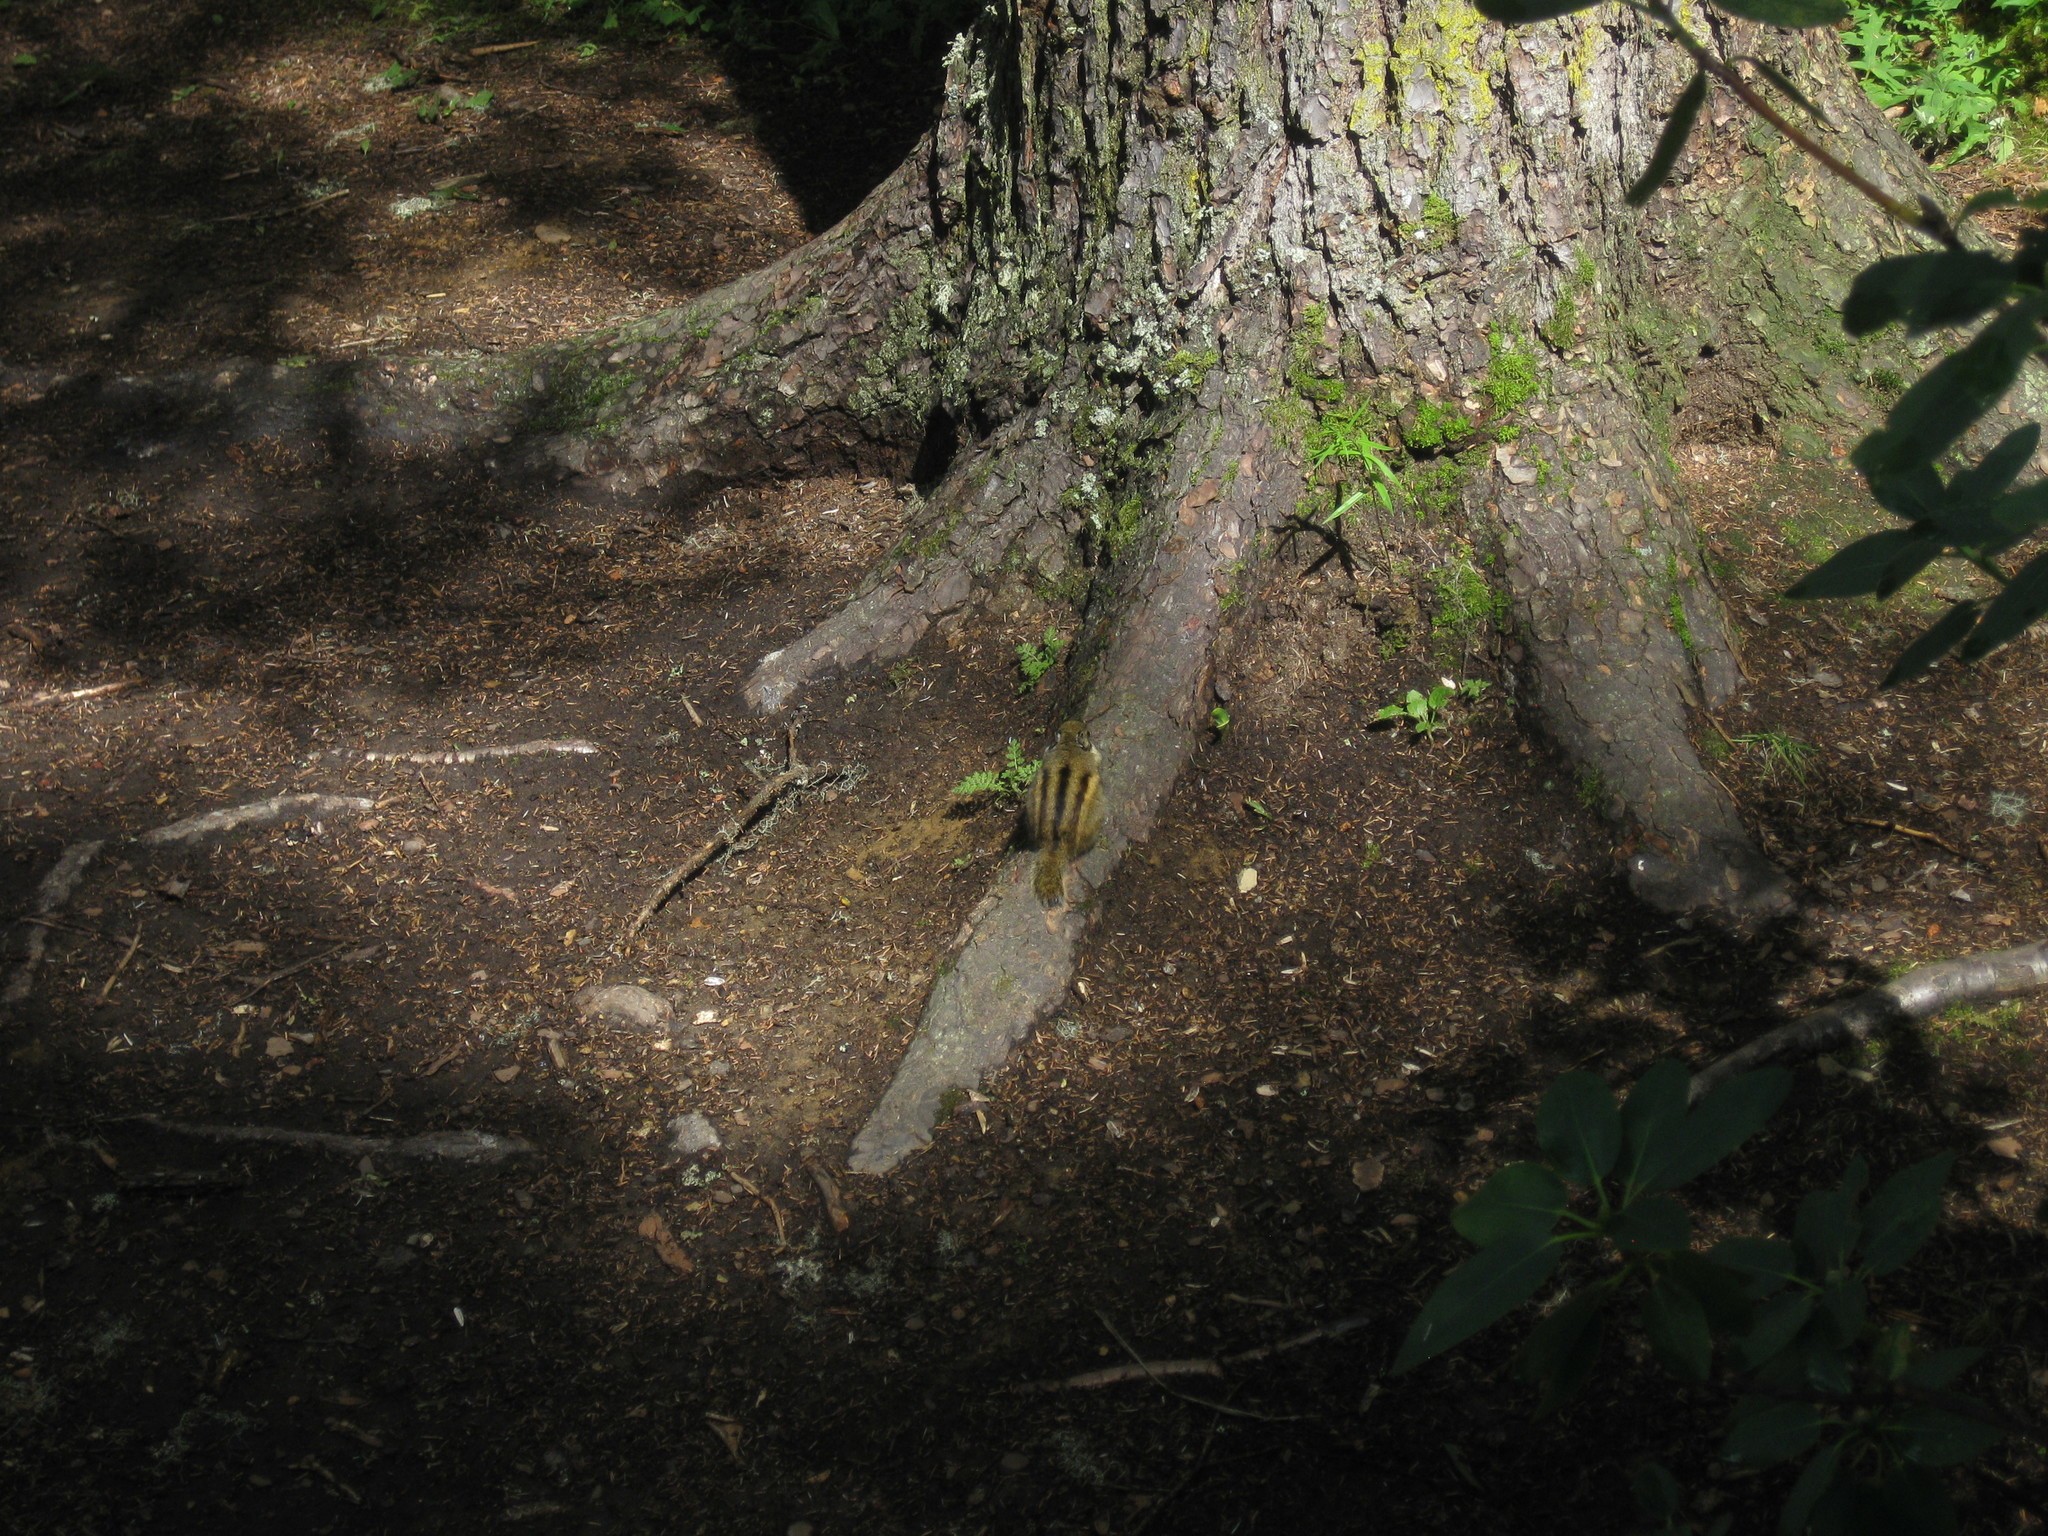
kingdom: Animalia
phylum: Chordata
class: Mammalia
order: Rodentia
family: Sciuridae
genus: Tamiops
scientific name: Tamiops swinhoei
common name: Swinhoe's striped squirrel
